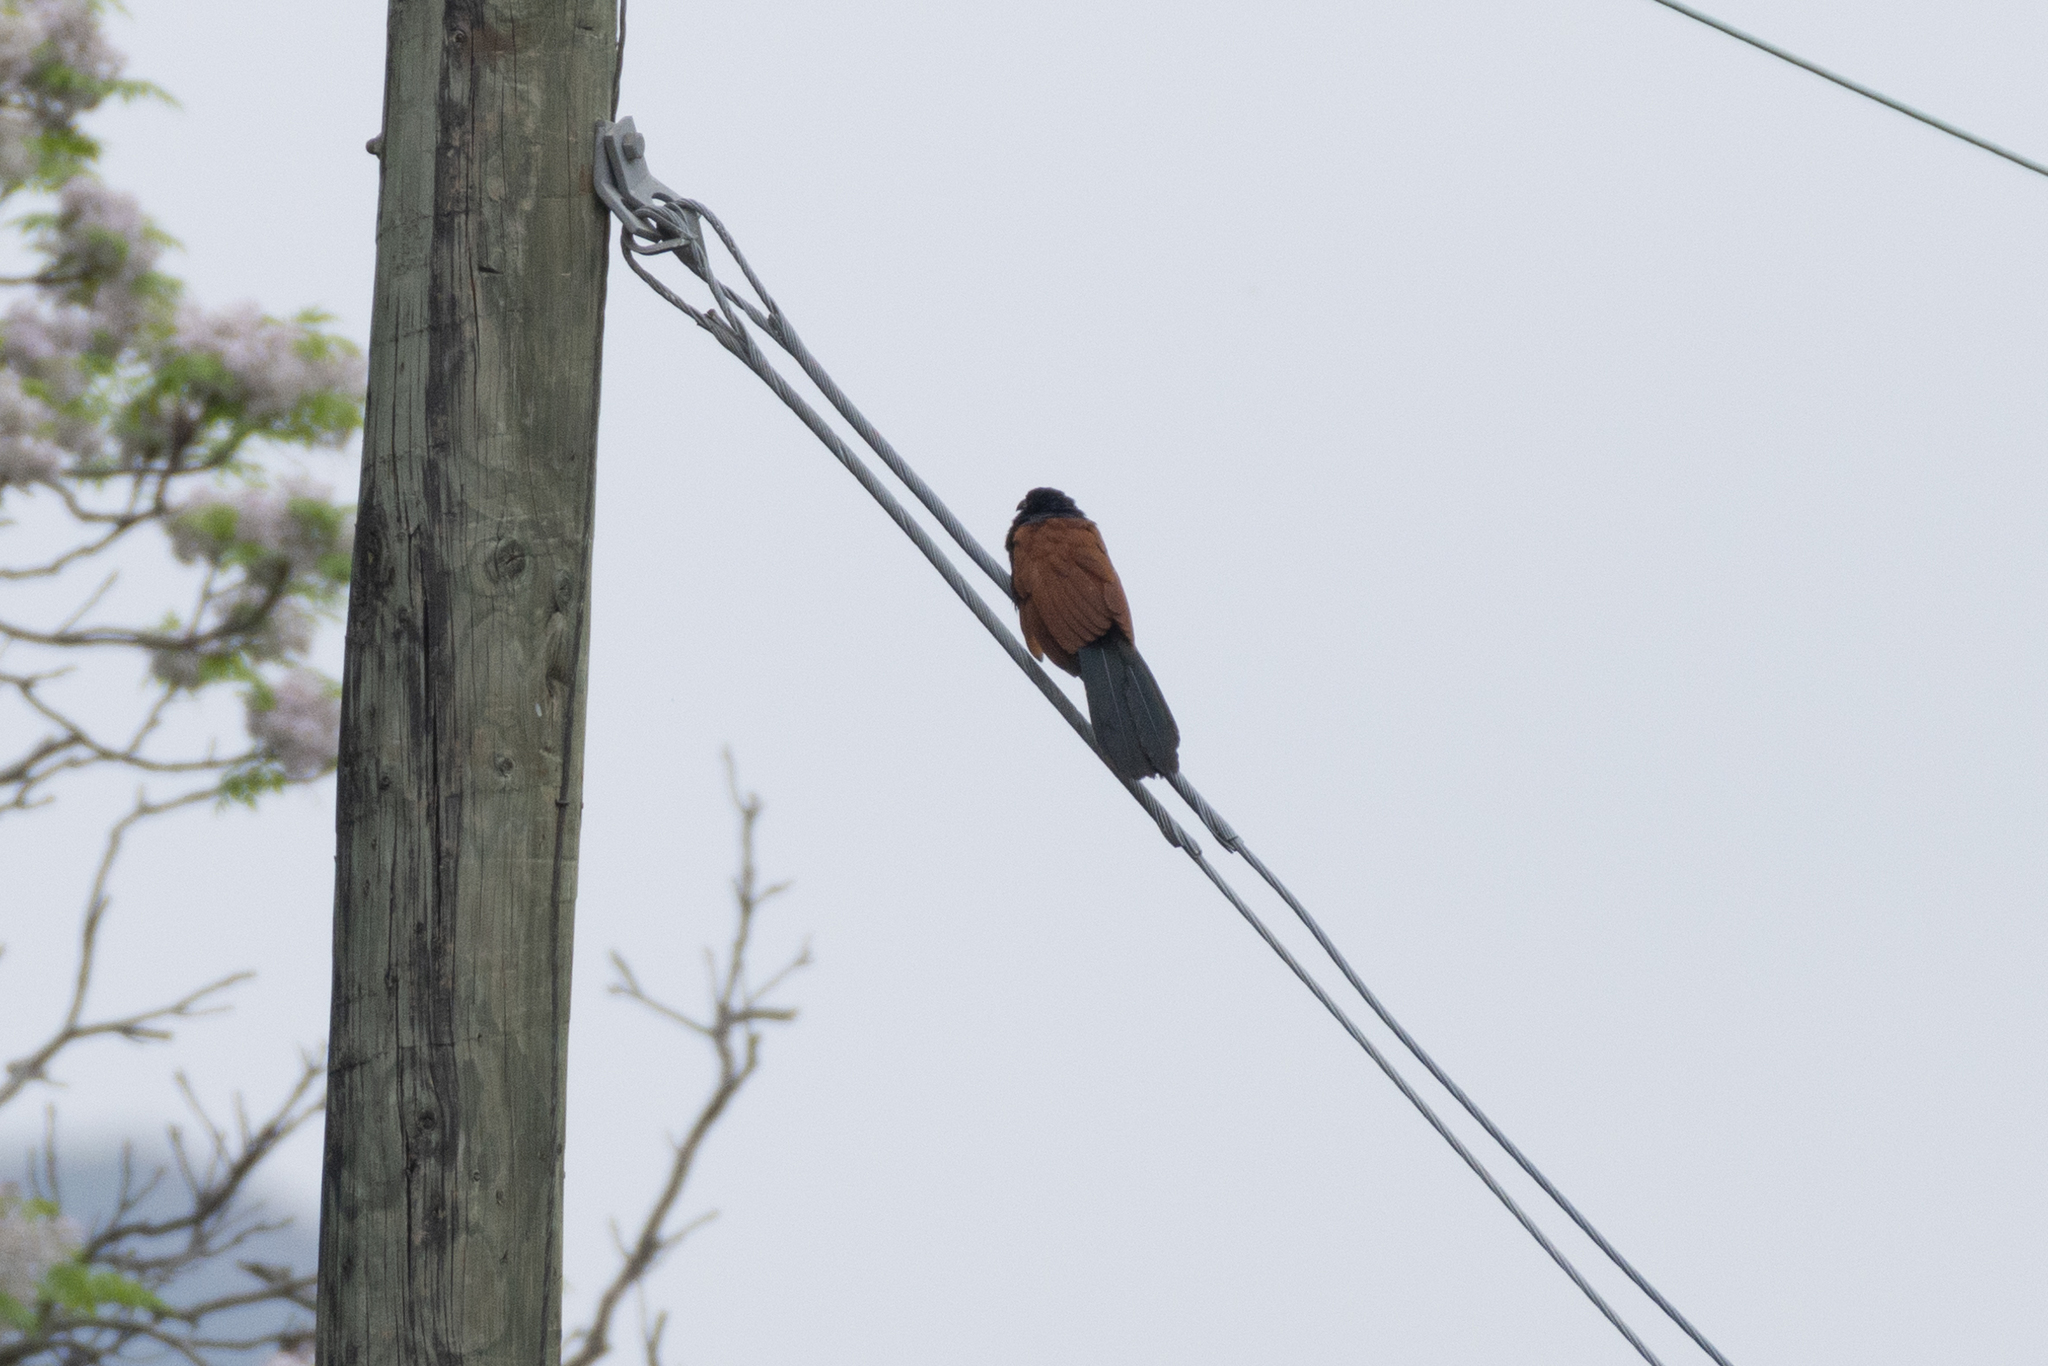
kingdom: Animalia
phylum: Chordata
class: Aves
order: Cuculiformes
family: Cuculidae
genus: Centropus
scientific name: Centropus sinensis
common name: Greater coucal
